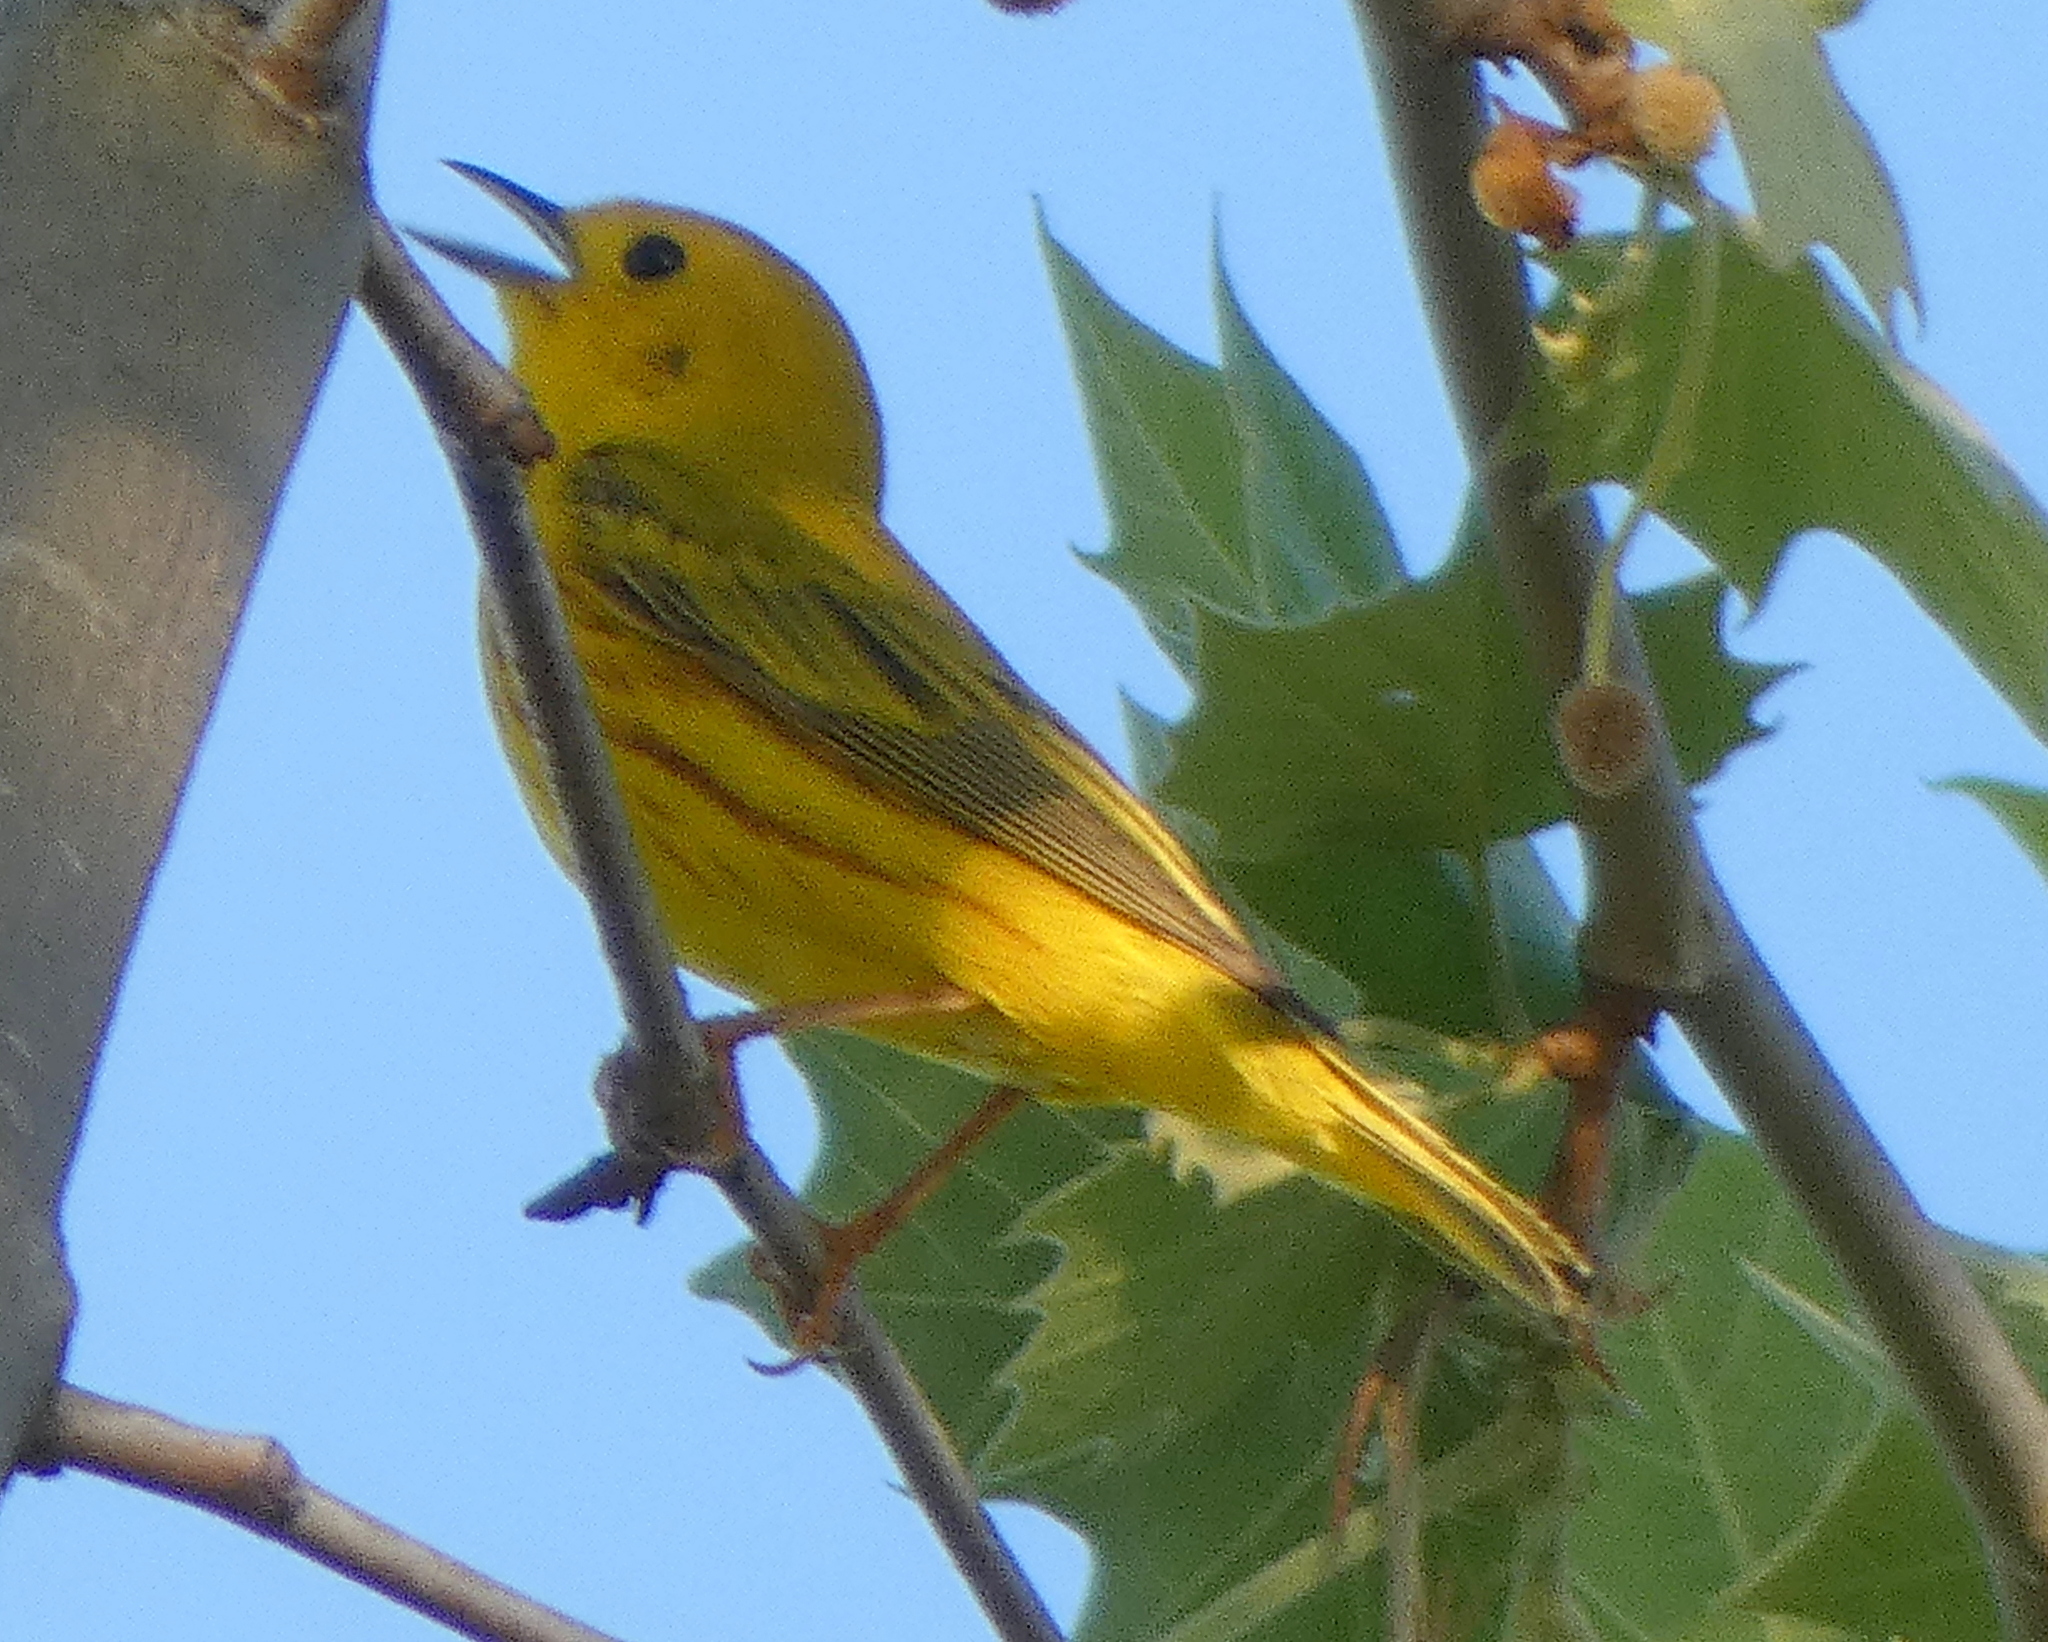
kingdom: Animalia
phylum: Chordata
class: Aves
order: Passeriformes
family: Parulidae
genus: Setophaga
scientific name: Setophaga petechia
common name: Yellow warbler
